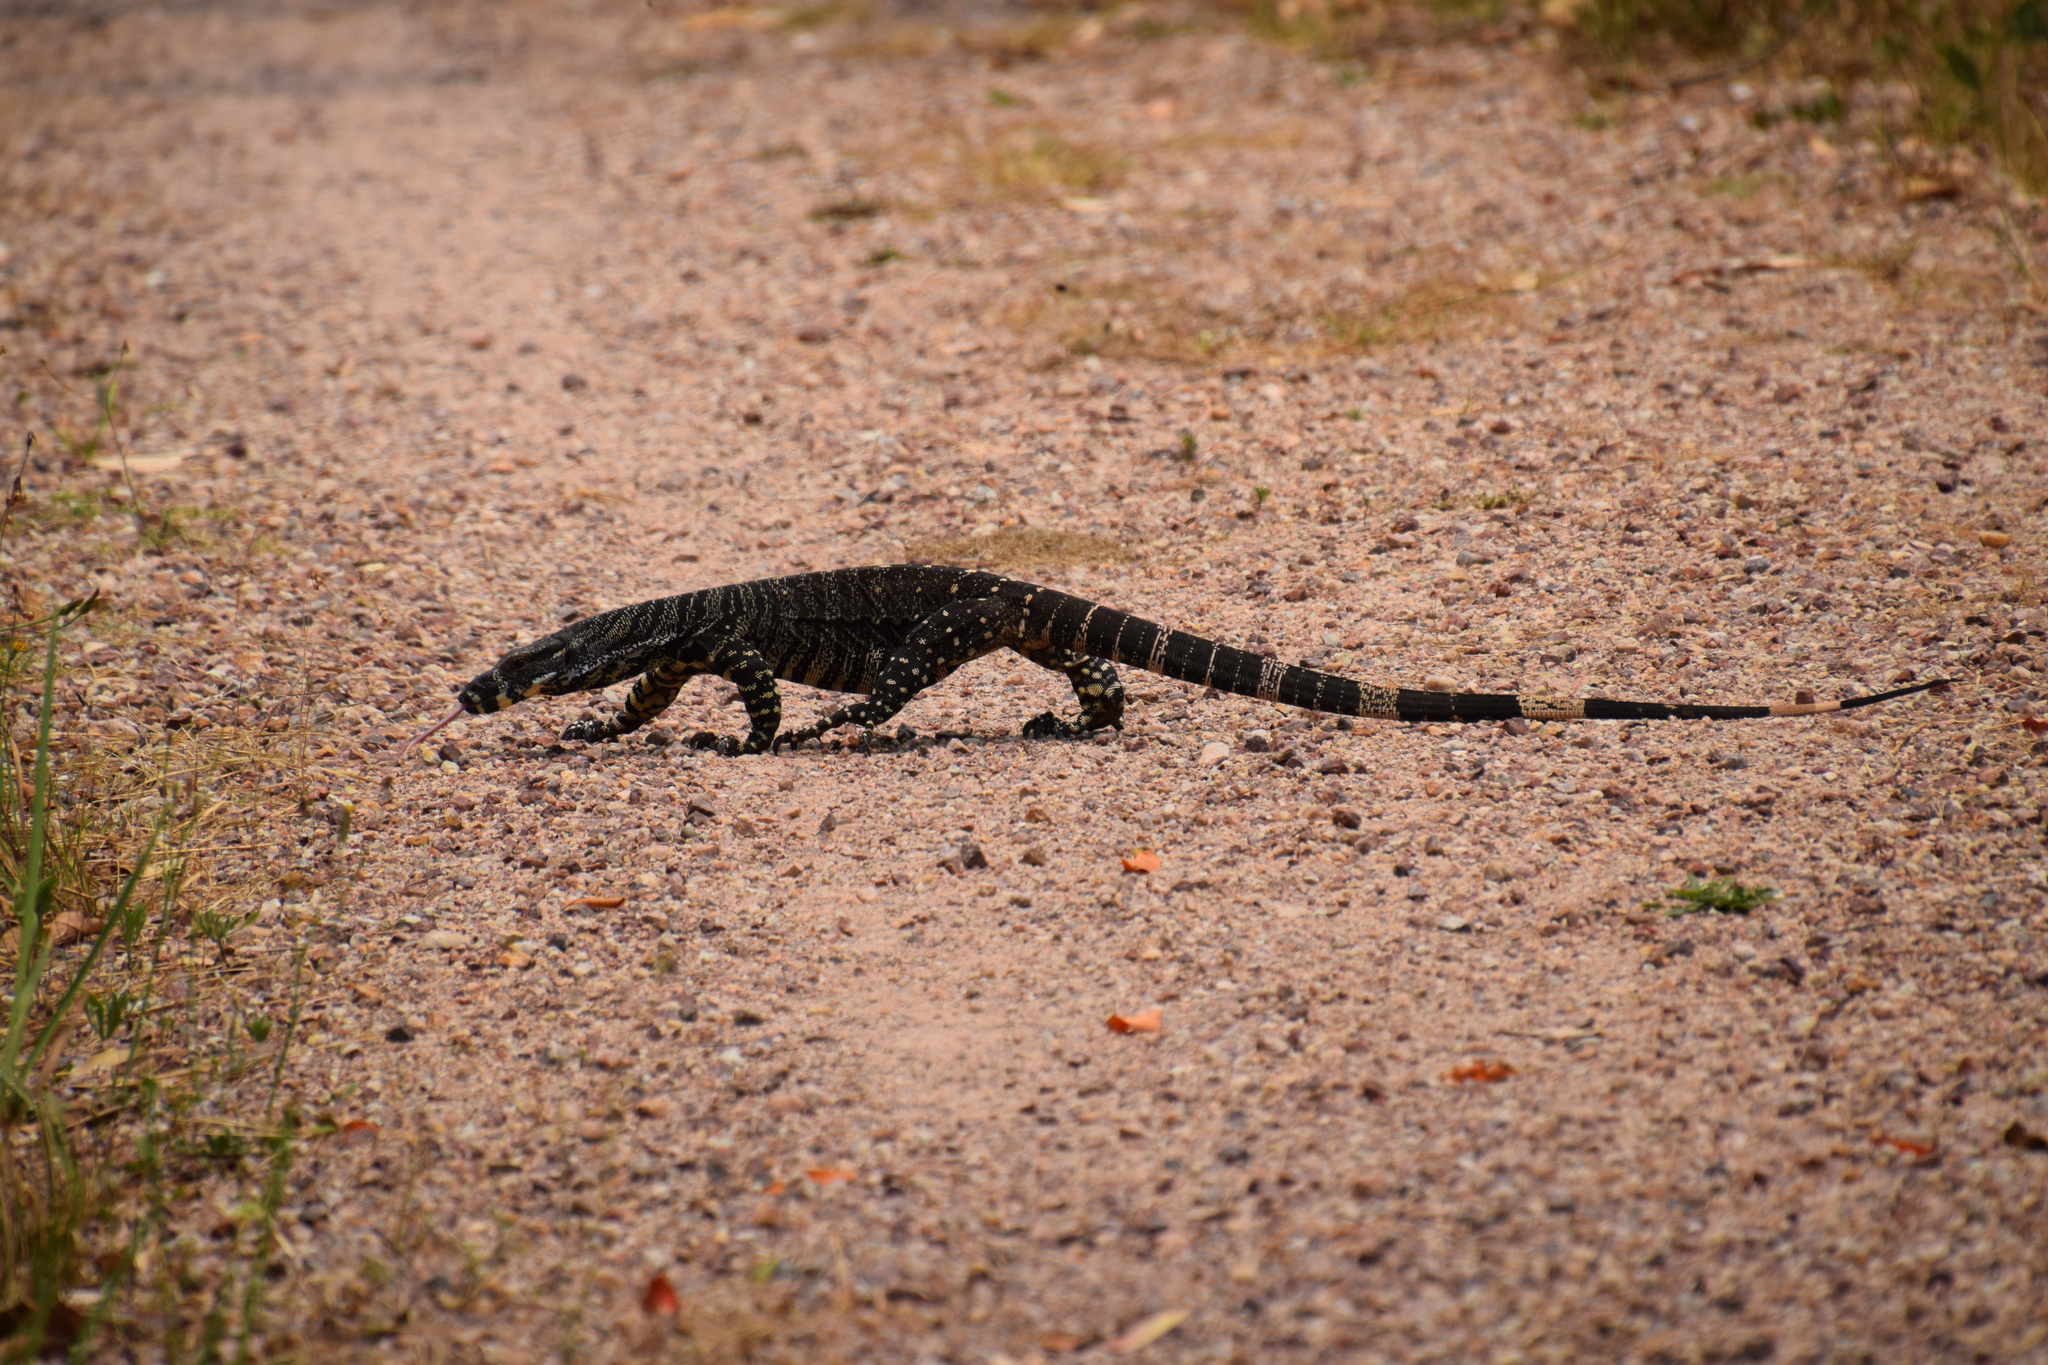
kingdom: Animalia
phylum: Chordata
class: Squamata
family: Varanidae
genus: Varanus
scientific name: Varanus varius
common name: Lace monitor
